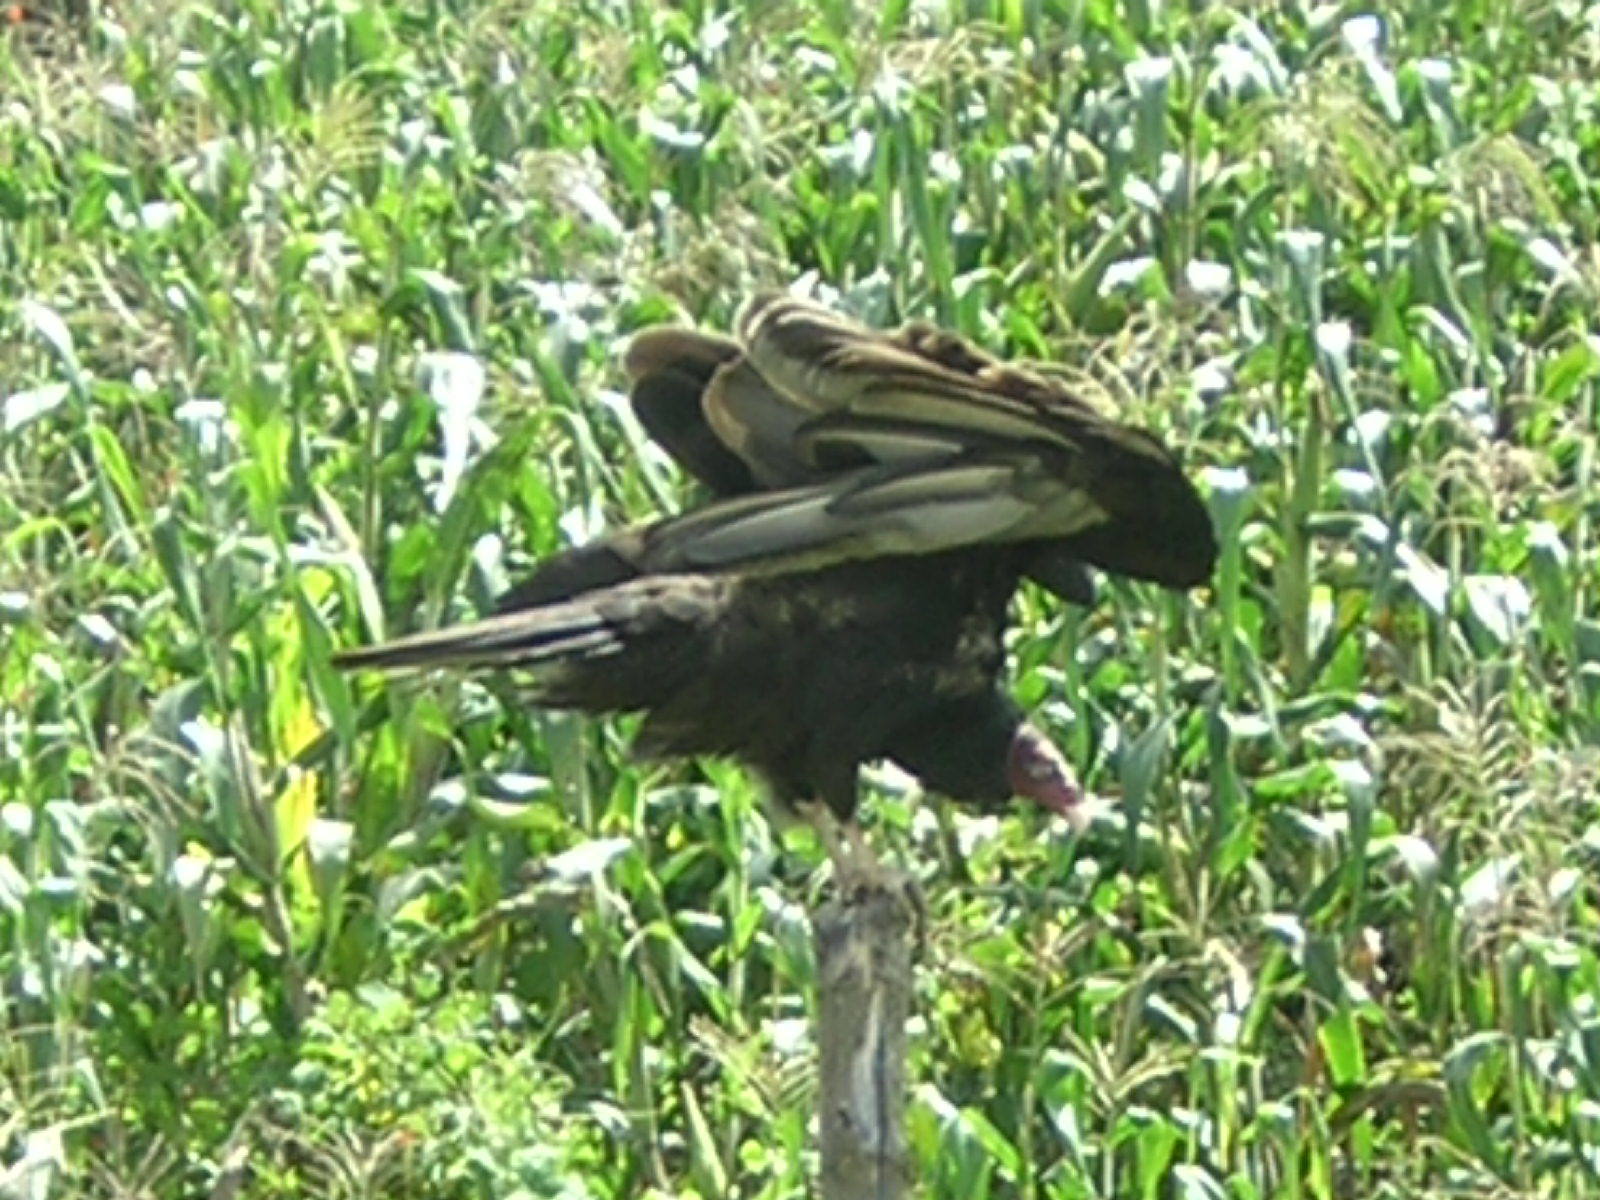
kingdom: Animalia
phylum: Chordata
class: Aves
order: Accipitriformes
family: Cathartidae
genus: Cathartes
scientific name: Cathartes aura
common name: Turkey vulture
